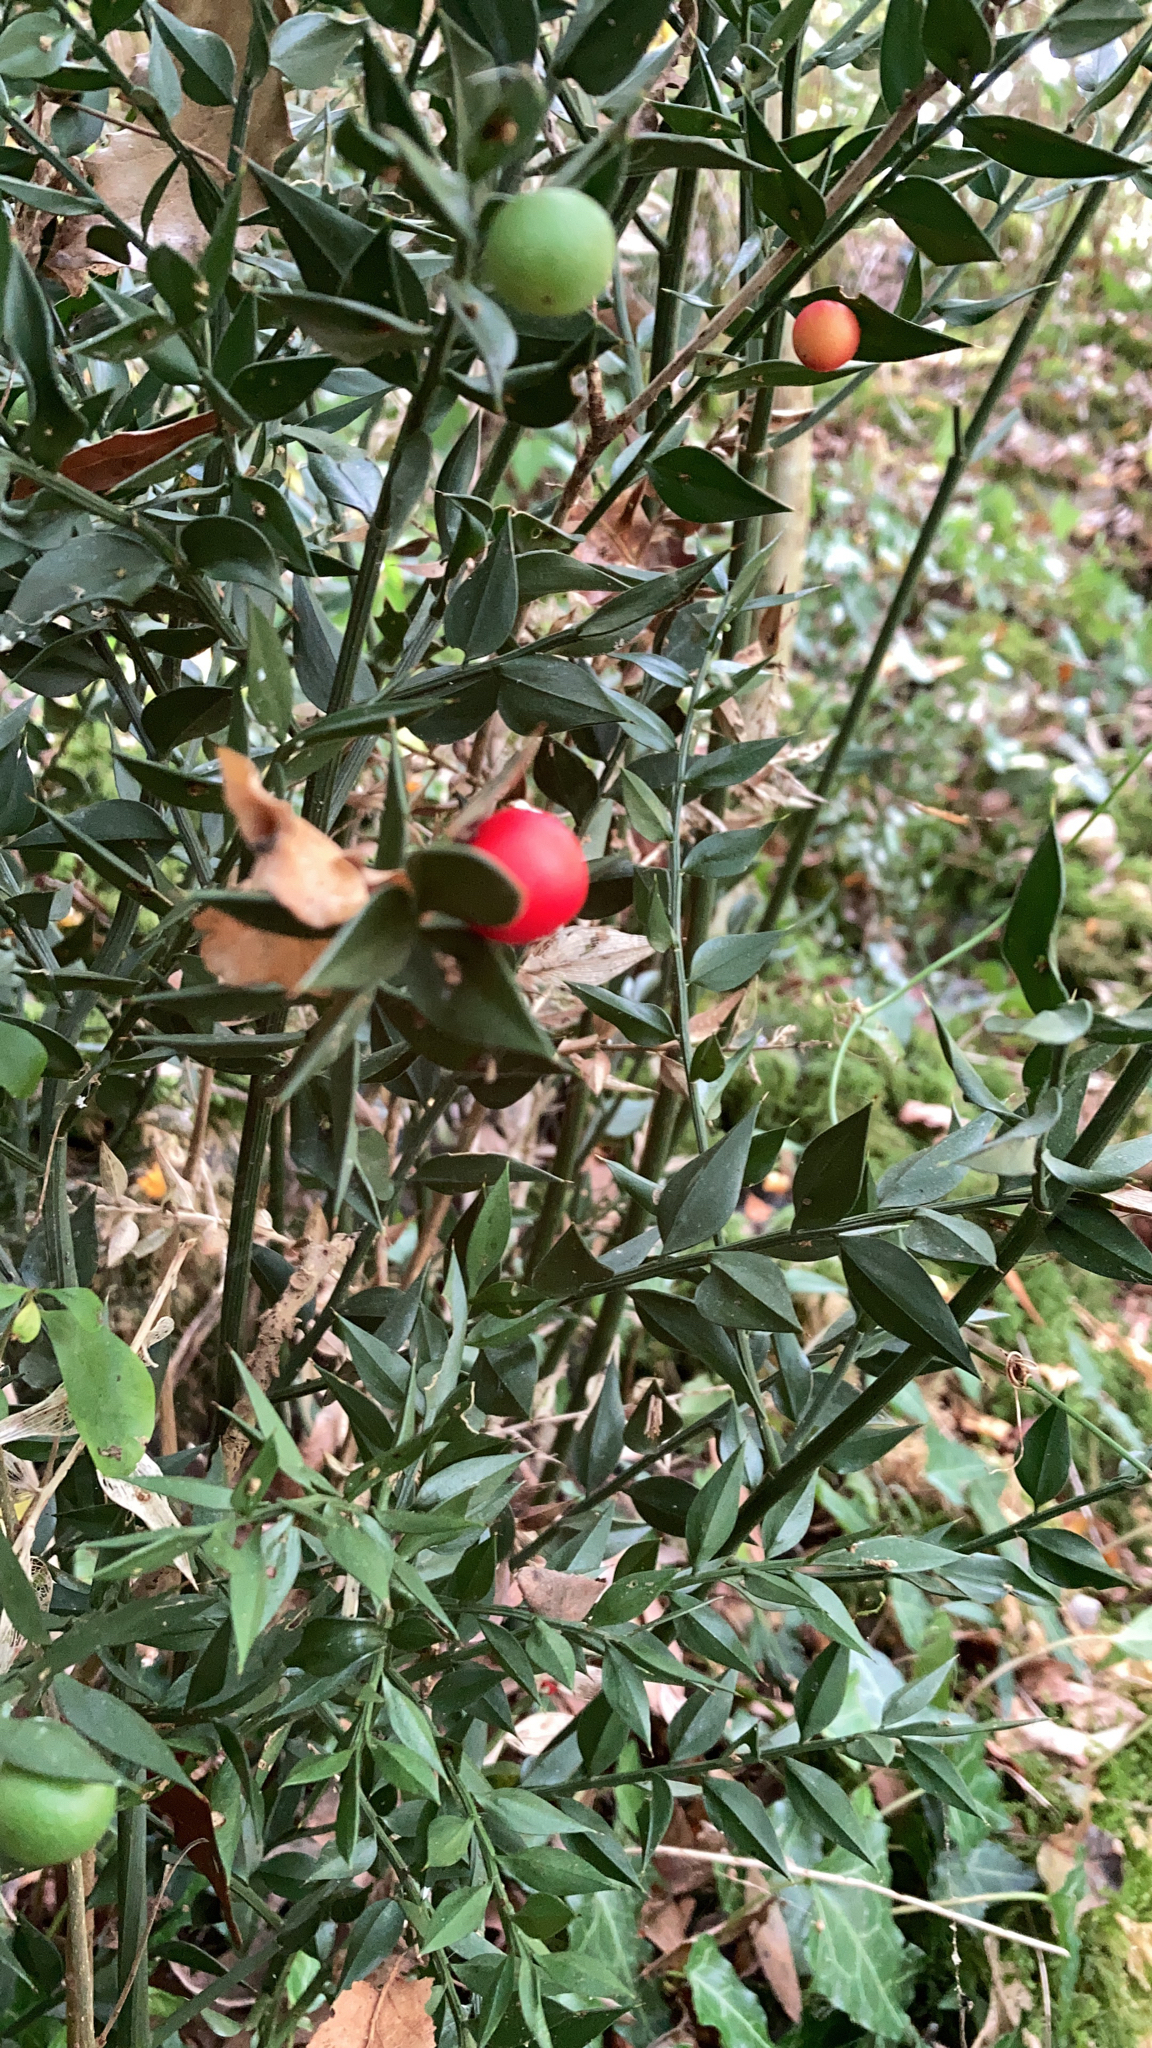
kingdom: Plantae
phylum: Tracheophyta
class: Liliopsida
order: Asparagales
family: Asparagaceae
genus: Ruscus
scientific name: Ruscus aculeatus
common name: Butcher's-broom
